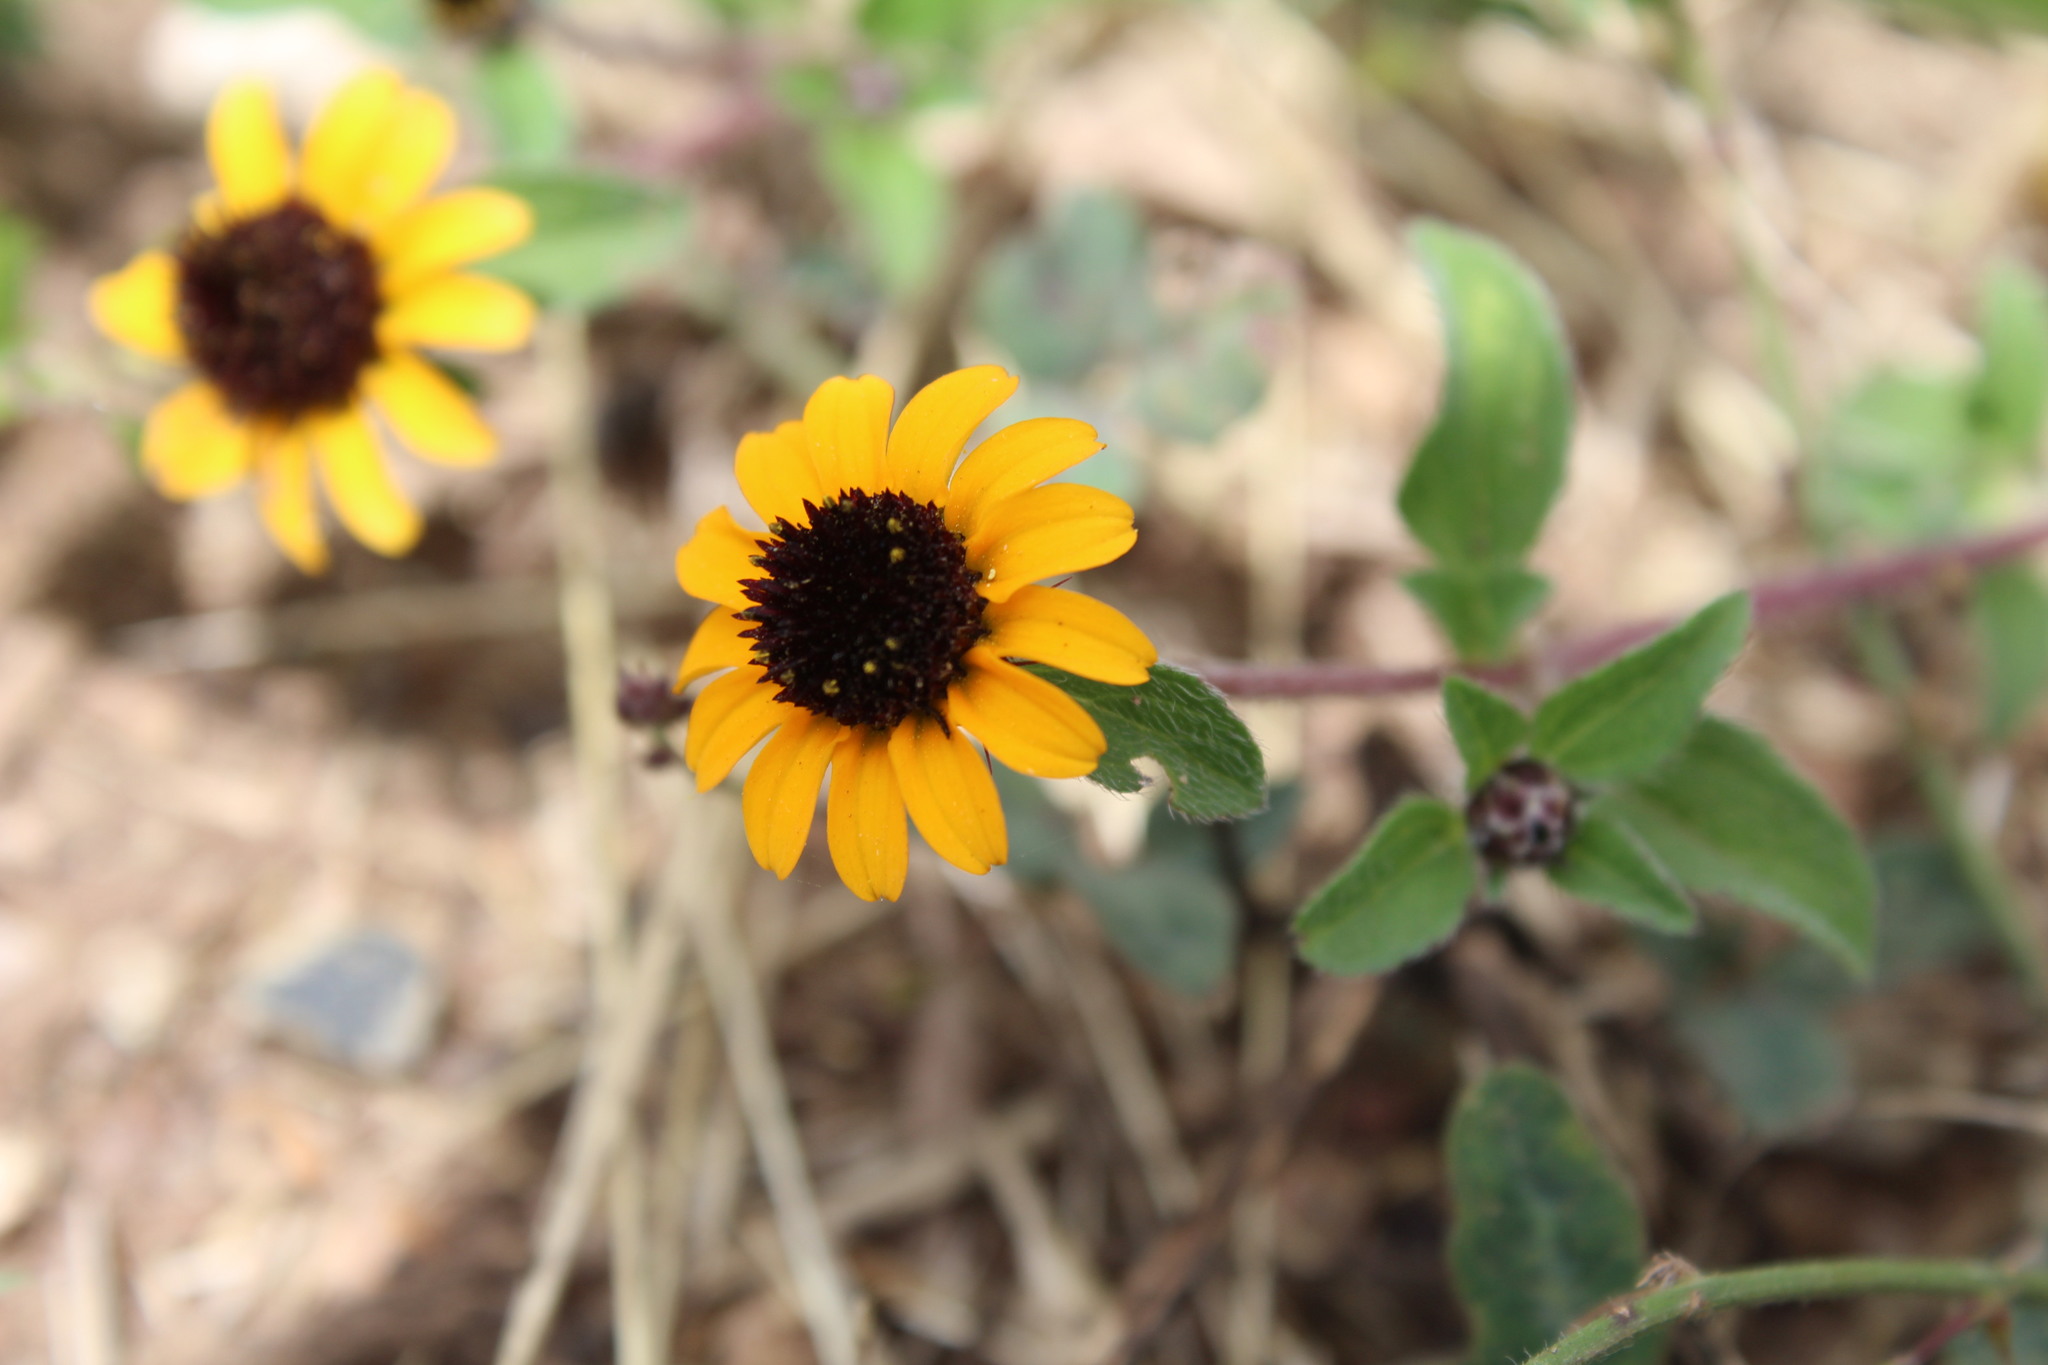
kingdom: Plantae
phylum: Tracheophyta
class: Magnoliopsida
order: Asterales
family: Asteraceae
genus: Sanvitalia
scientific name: Sanvitalia procumbens
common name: Mexican creeping zinnia
